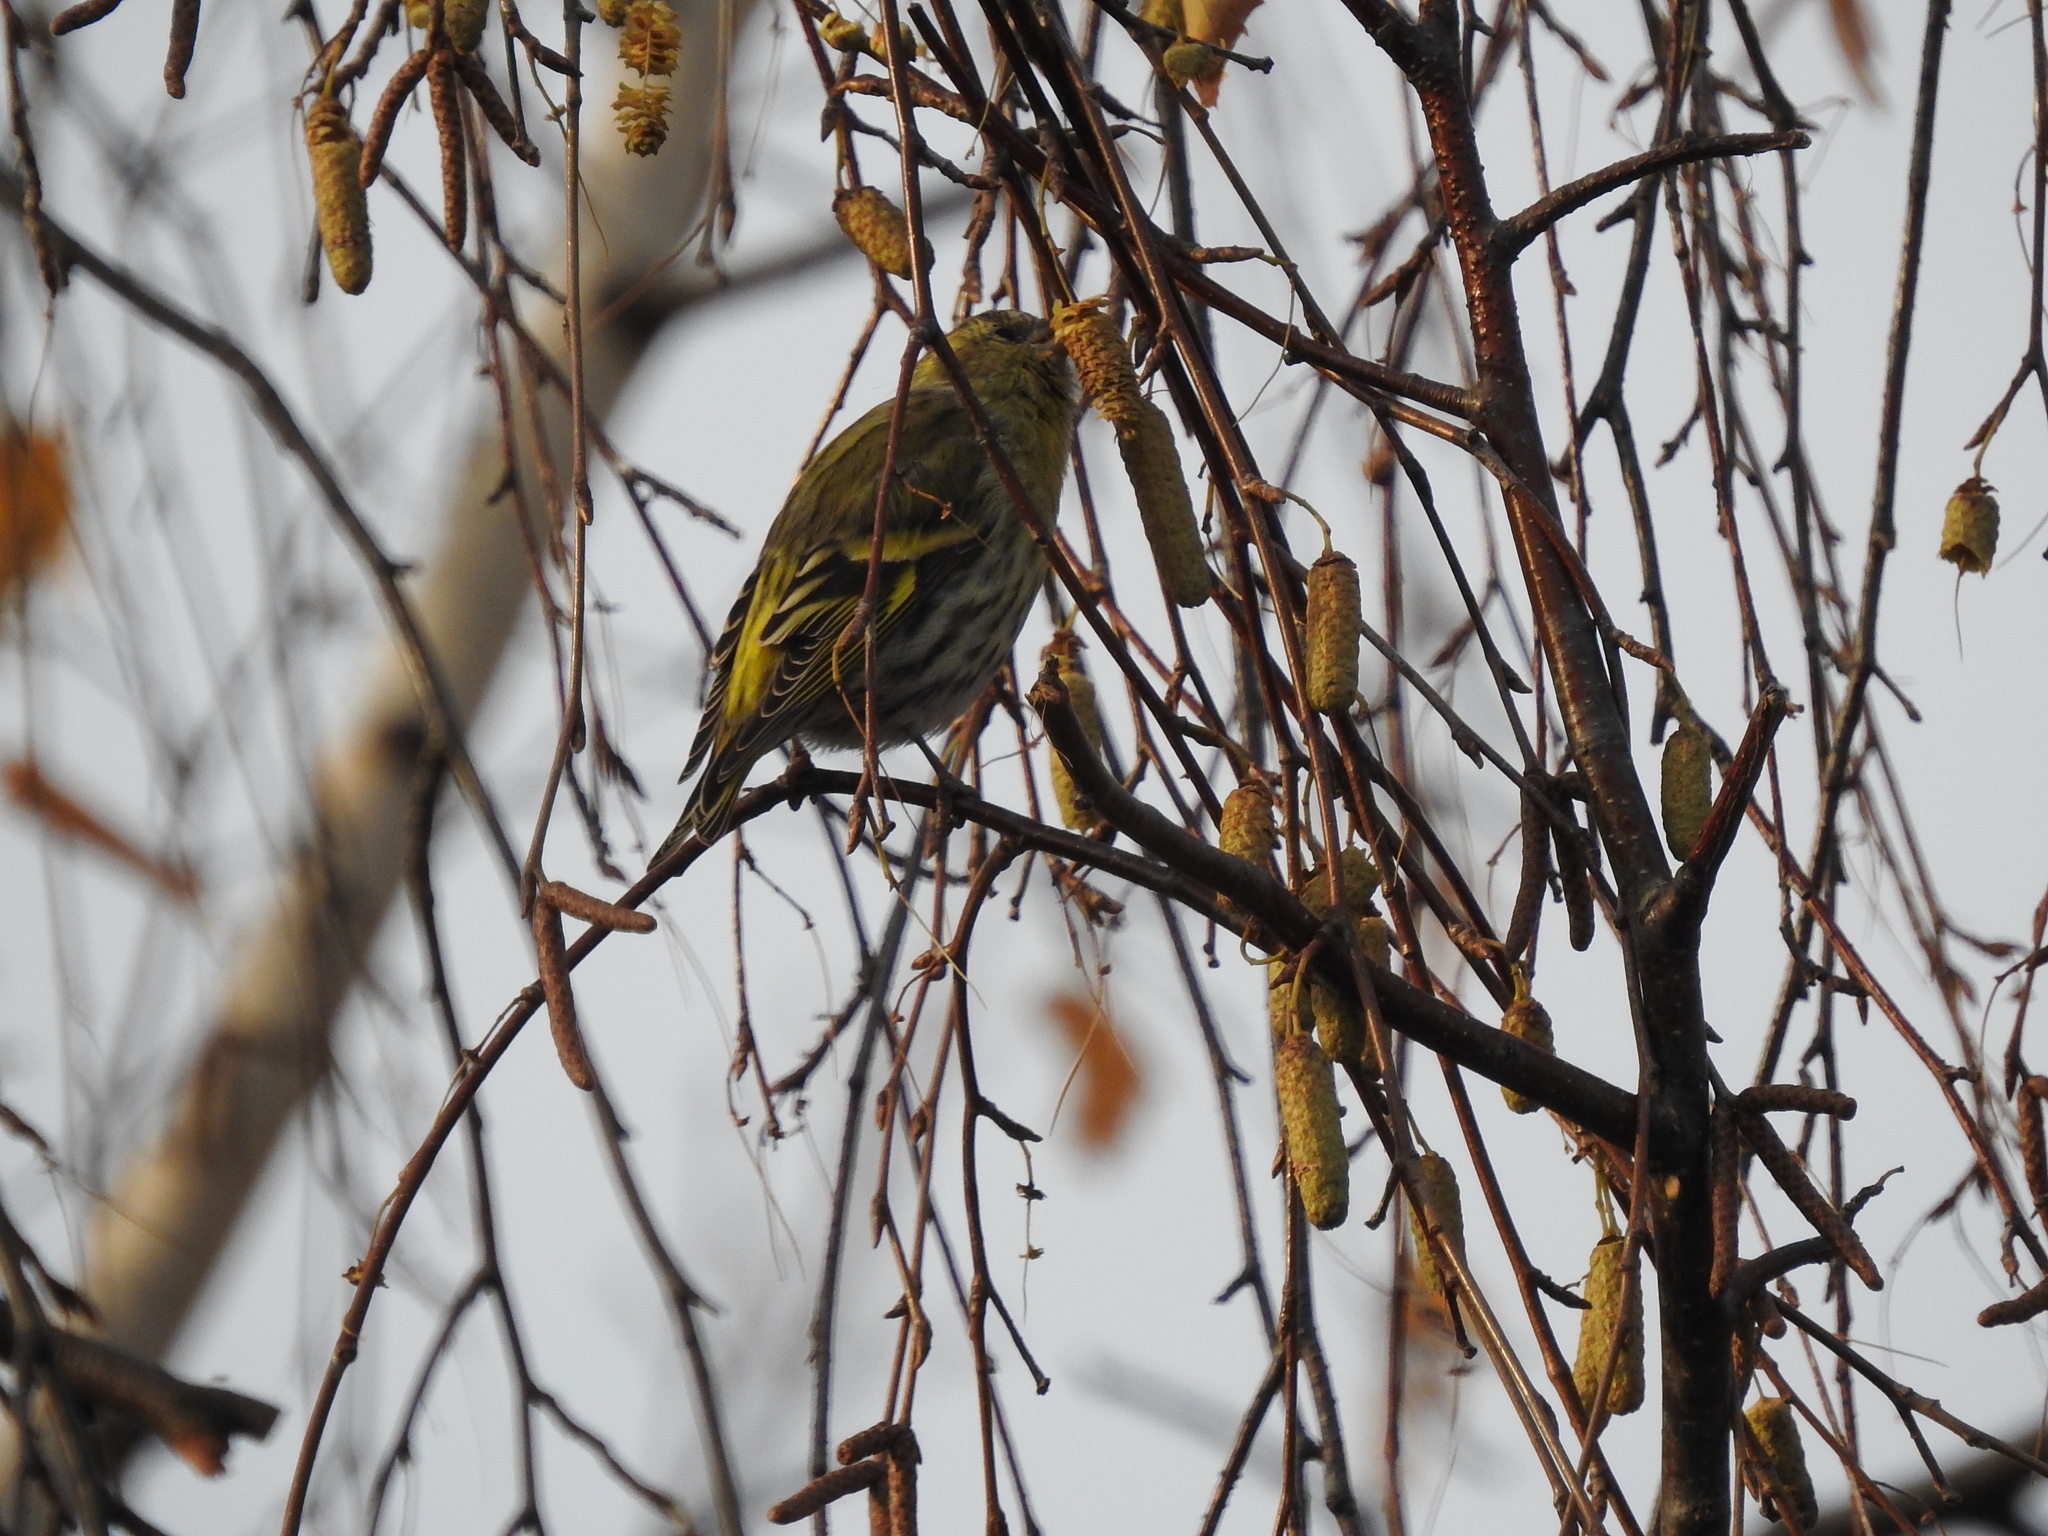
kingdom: Animalia
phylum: Chordata
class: Aves
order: Passeriformes
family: Fringillidae
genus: Spinus
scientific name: Spinus spinus
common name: Eurasian siskin
